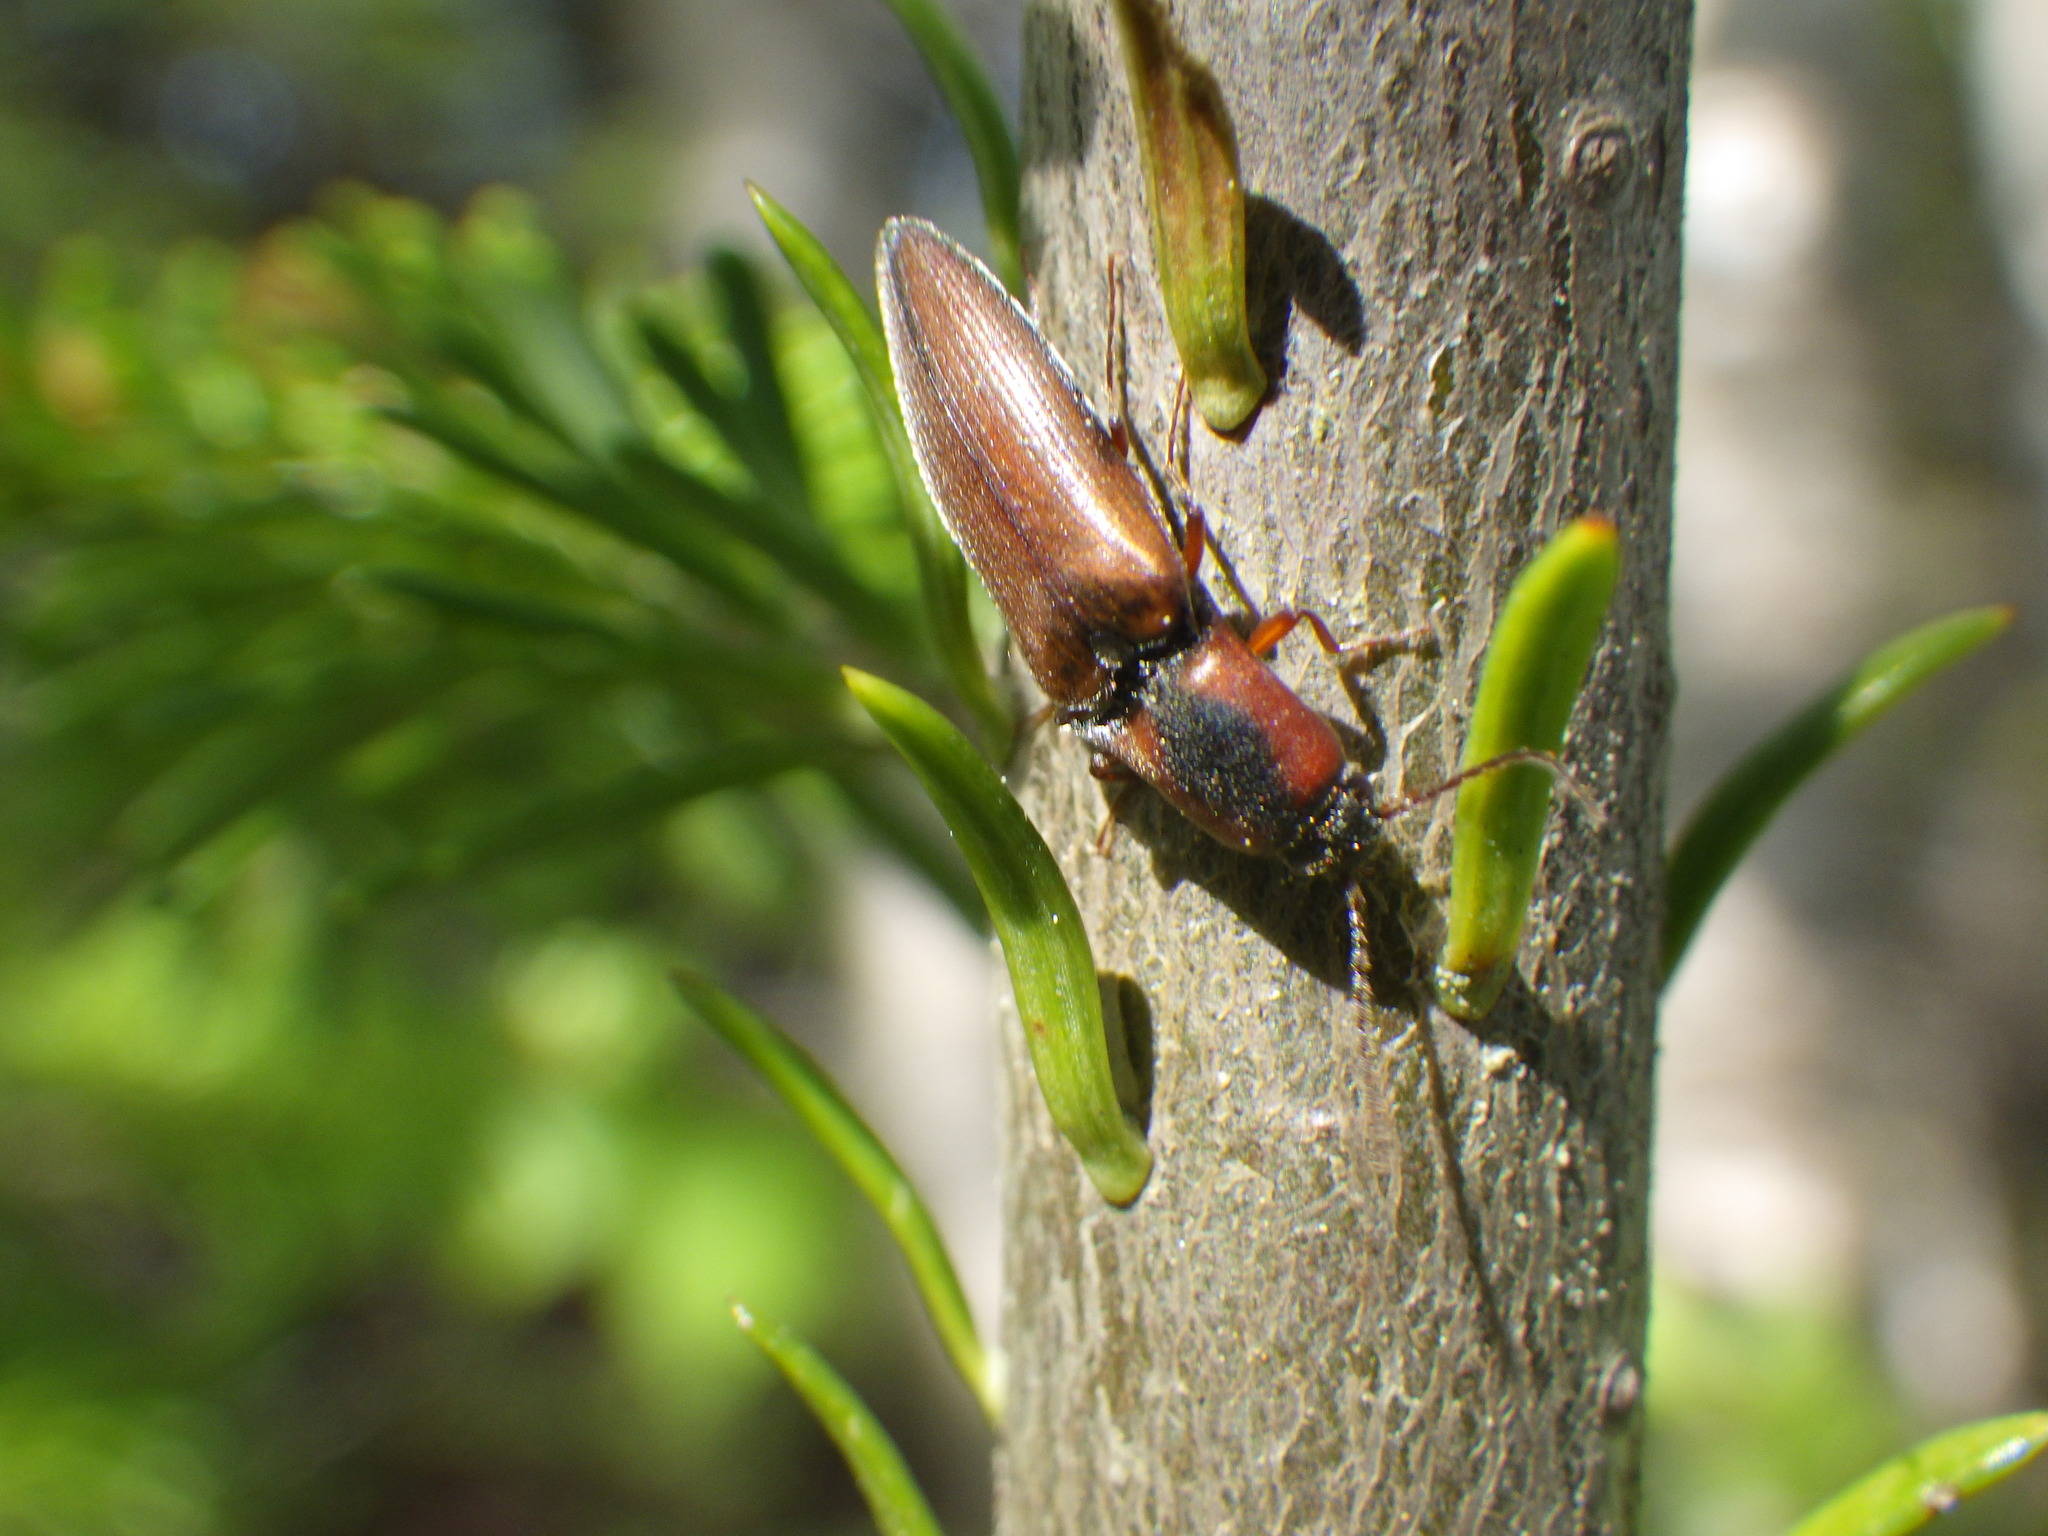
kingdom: Animalia
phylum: Arthropoda
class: Insecta
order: Coleoptera
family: Elateridae
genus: Agriotes
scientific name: Agriotes collaris
